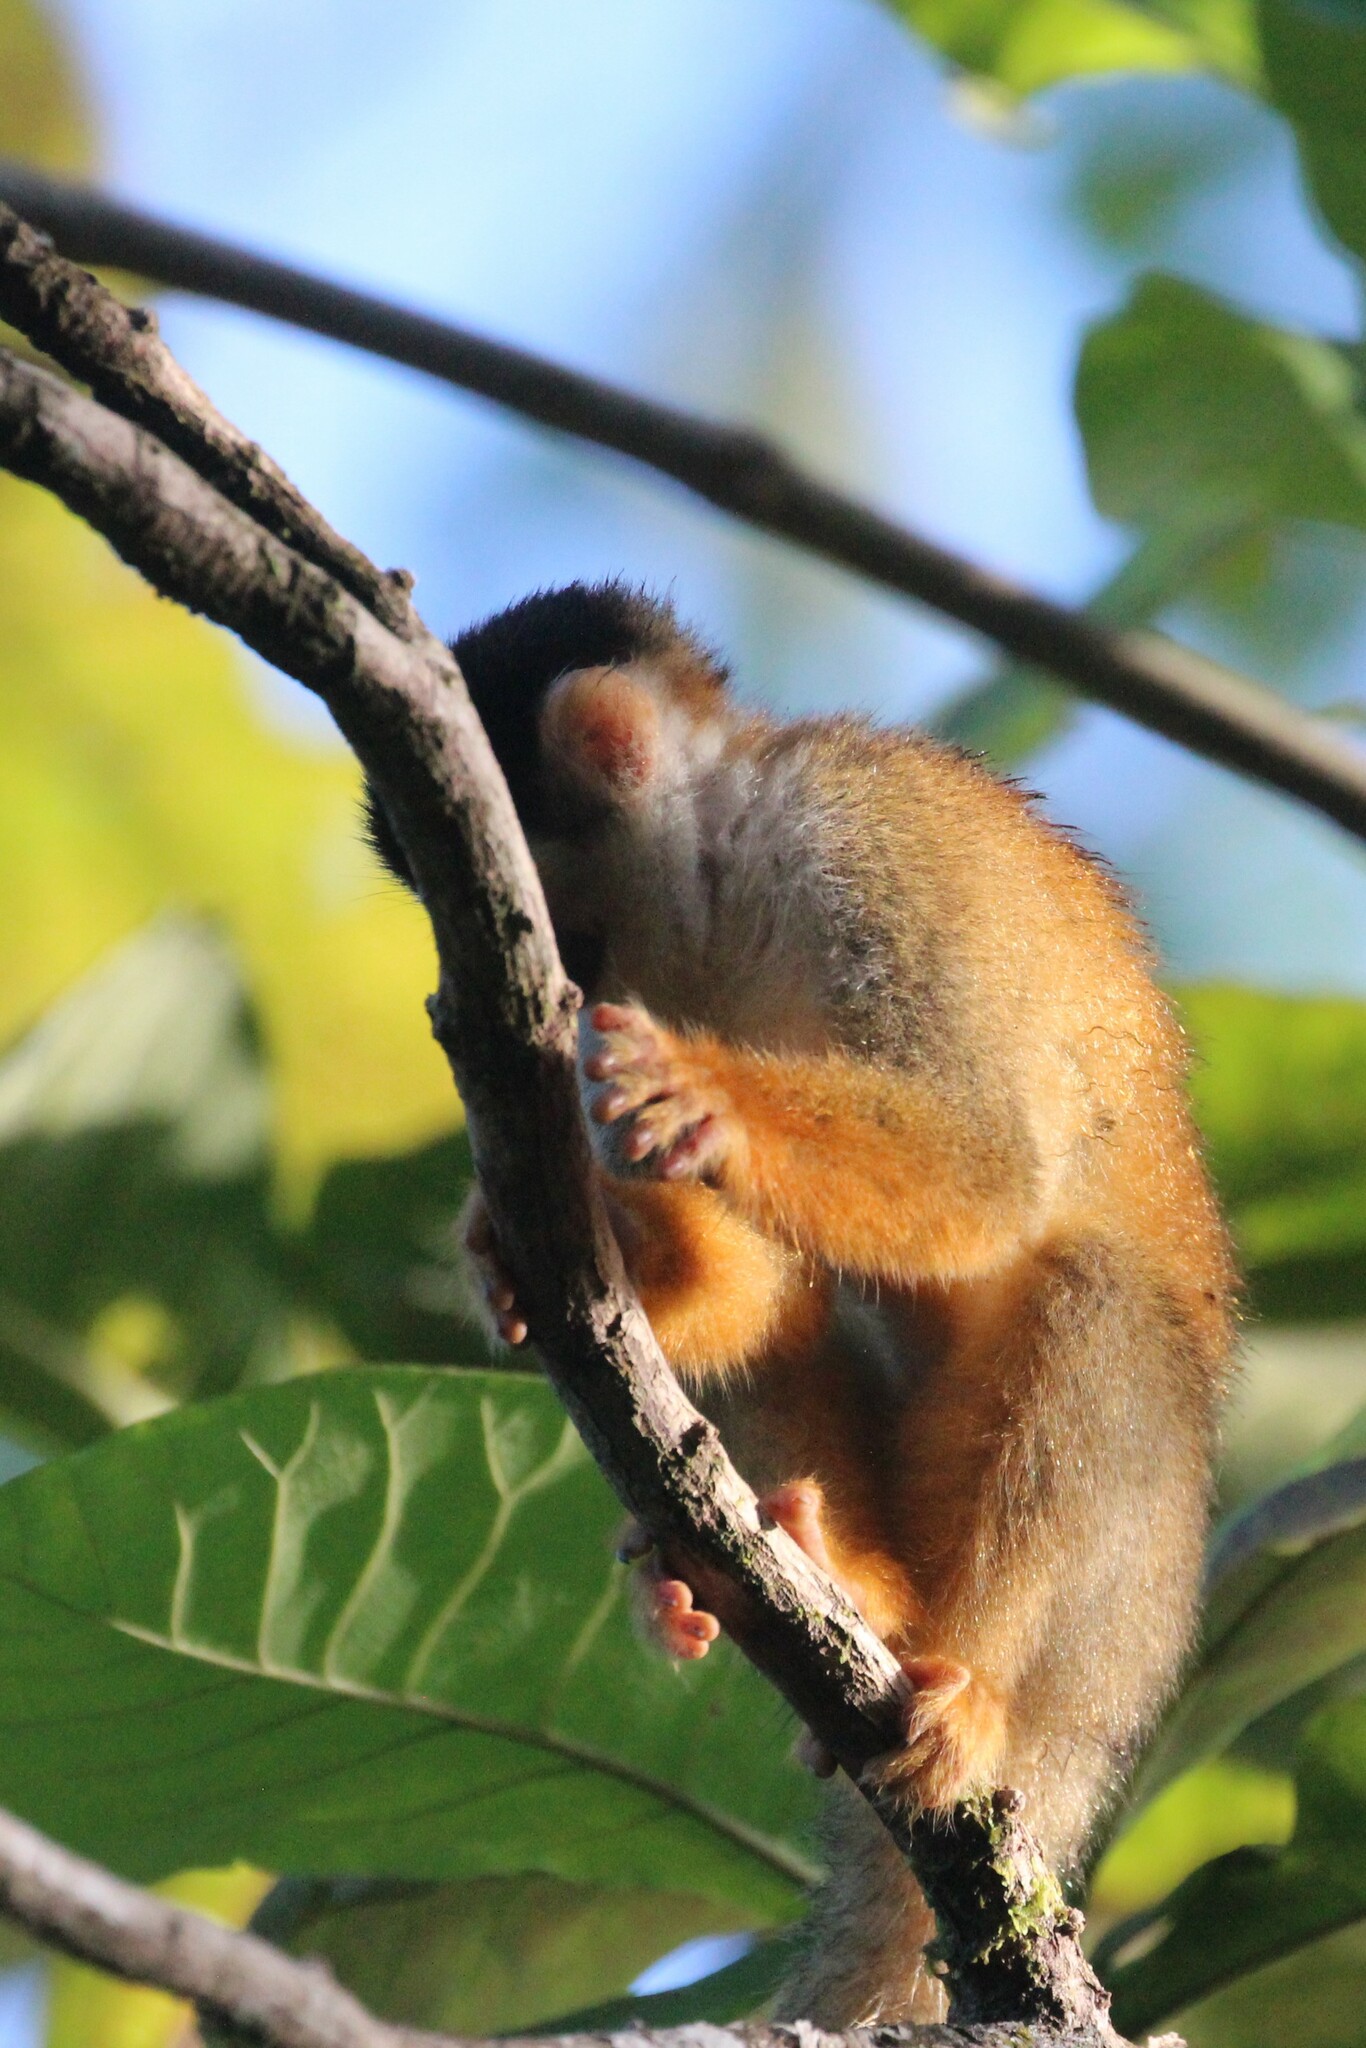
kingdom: Animalia
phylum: Chordata
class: Mammalia
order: Primates
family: Cebidae
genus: Saimiri
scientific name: Saimiri oerstedii
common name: Central american squirrel monkey
